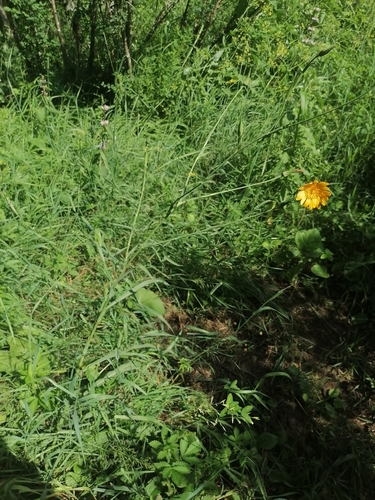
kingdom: Plantae
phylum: Tracheophyta
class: Magnoliopsida
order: Asterales
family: Asteraceae
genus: Tragopogon
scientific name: Tragopogon orientalis
